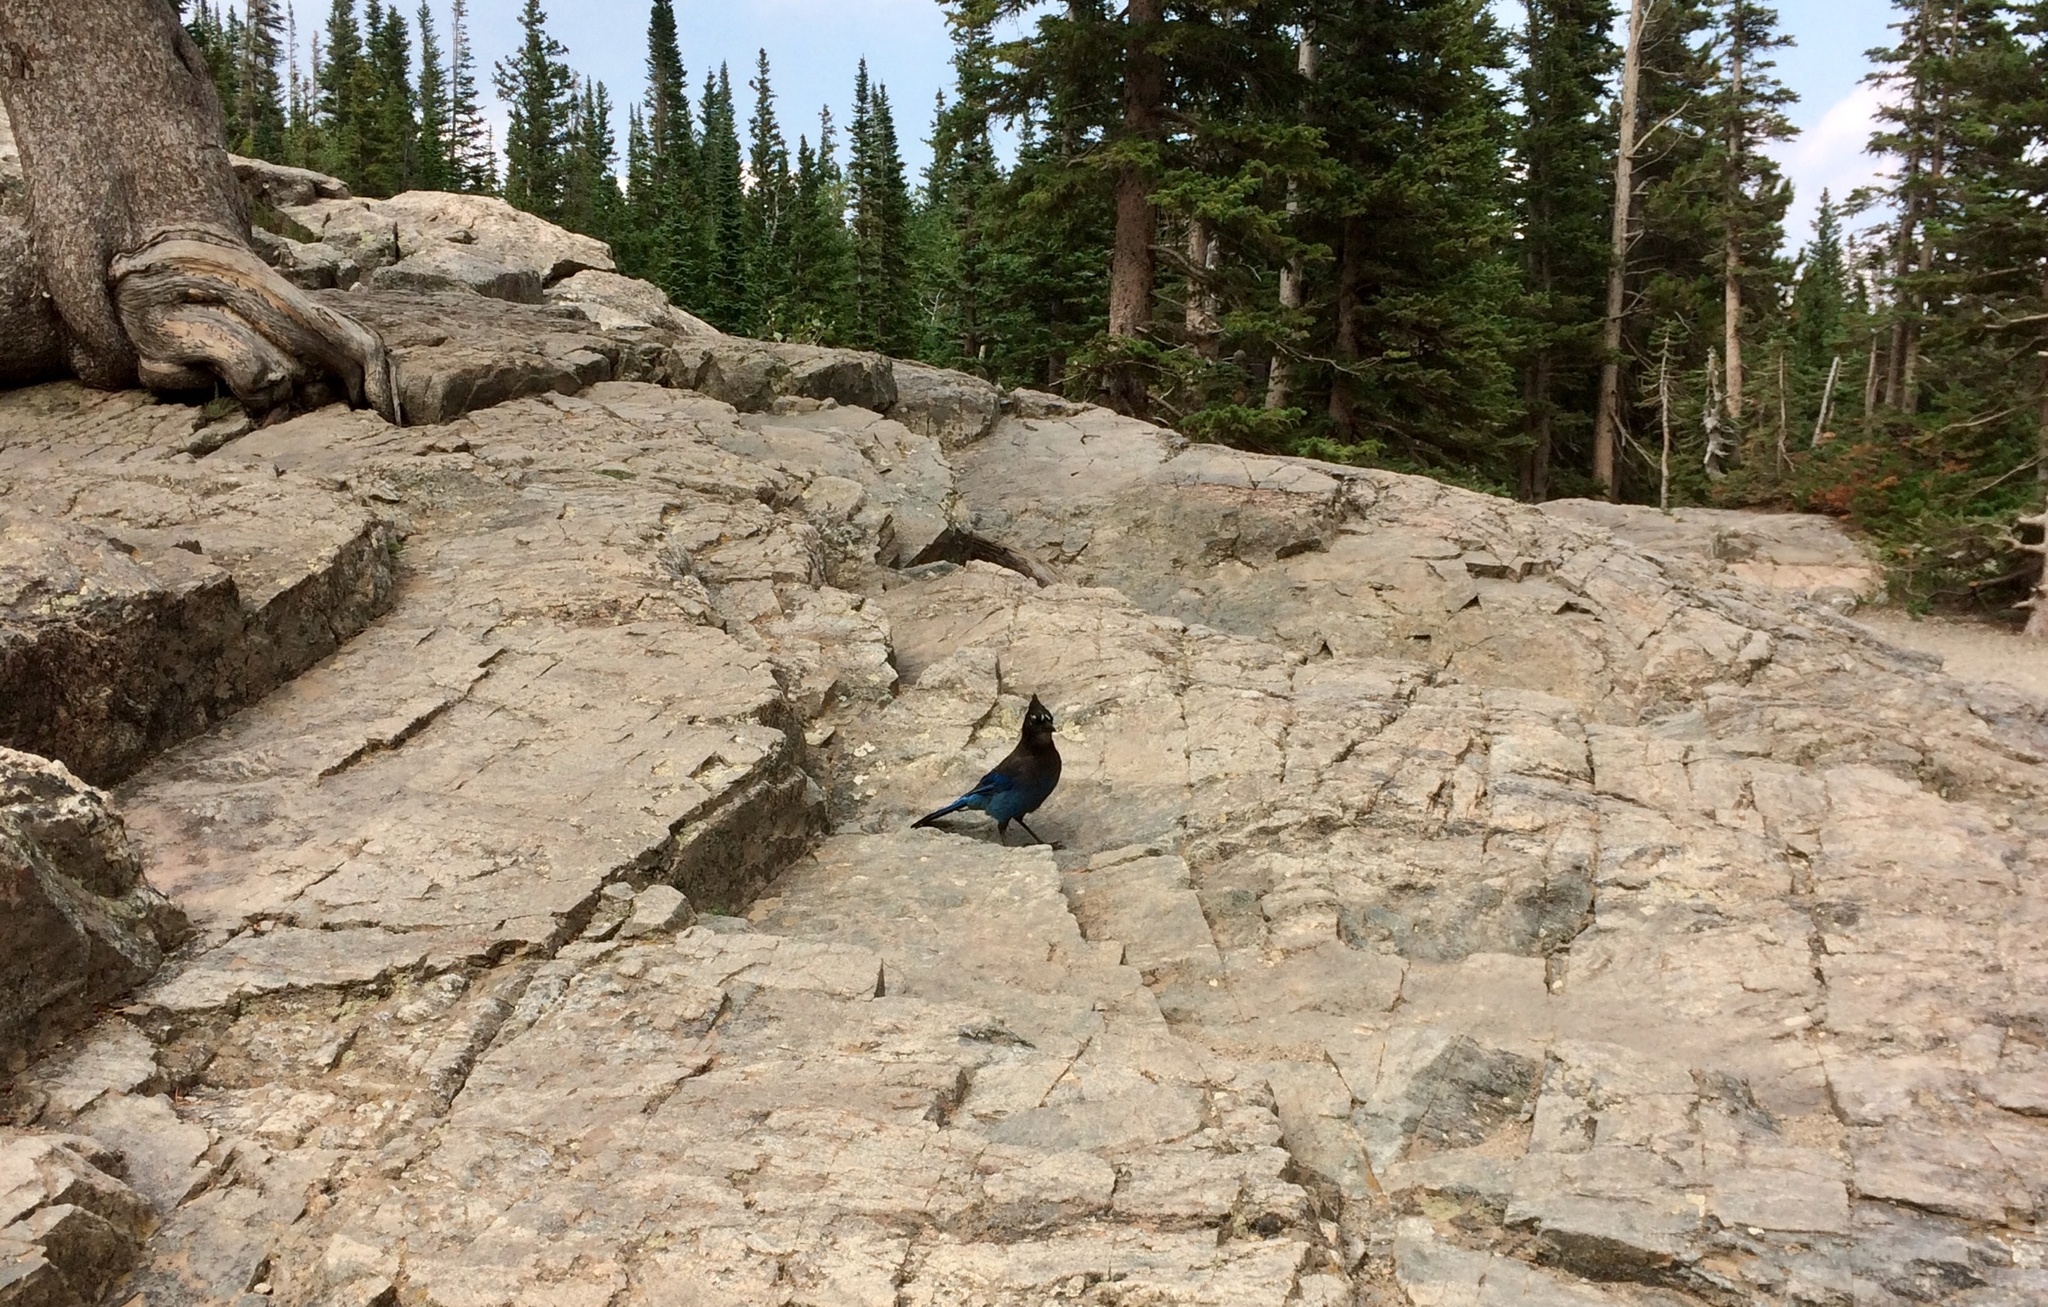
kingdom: Animalia
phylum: Chordata
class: Aves
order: Passeriformes
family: Corvidae
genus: Cyanocitta
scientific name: Cyanocitta stelleri
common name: Steller's jay
